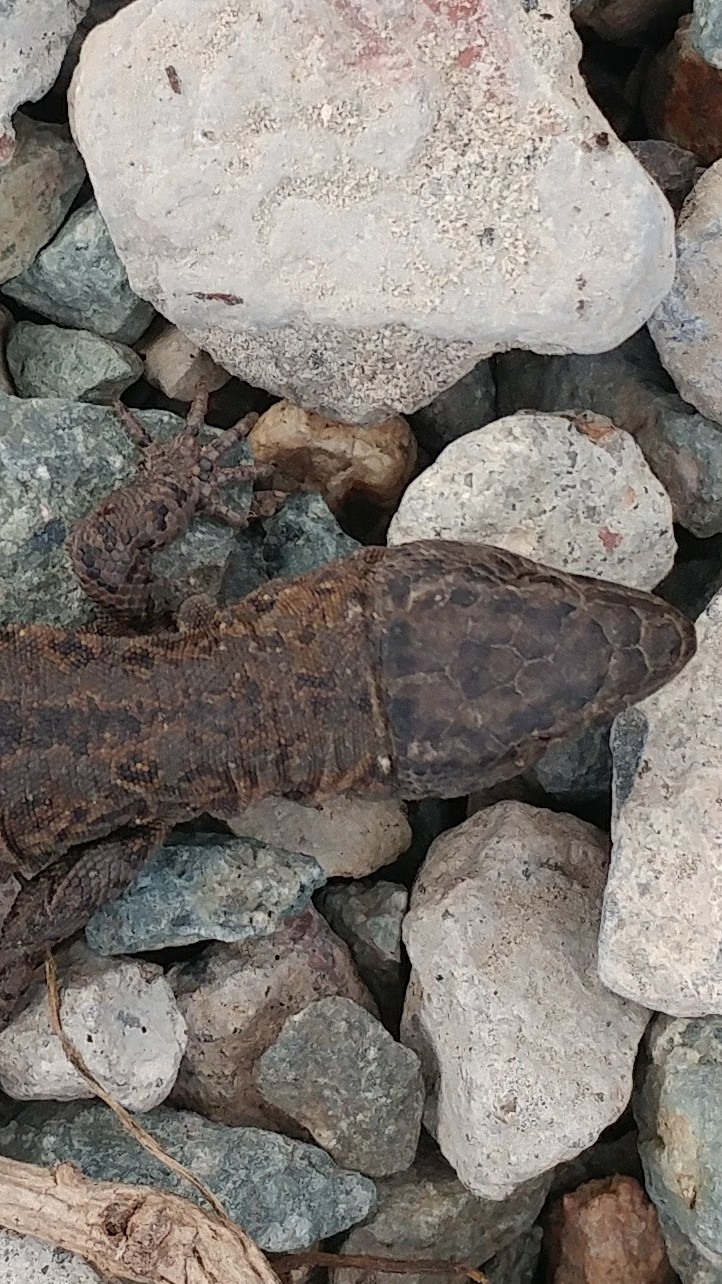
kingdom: Animalia
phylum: Chordata
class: Squamata
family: Xantusiidae
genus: Xantusia
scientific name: Xantusia riversiana
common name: Island night lizard
